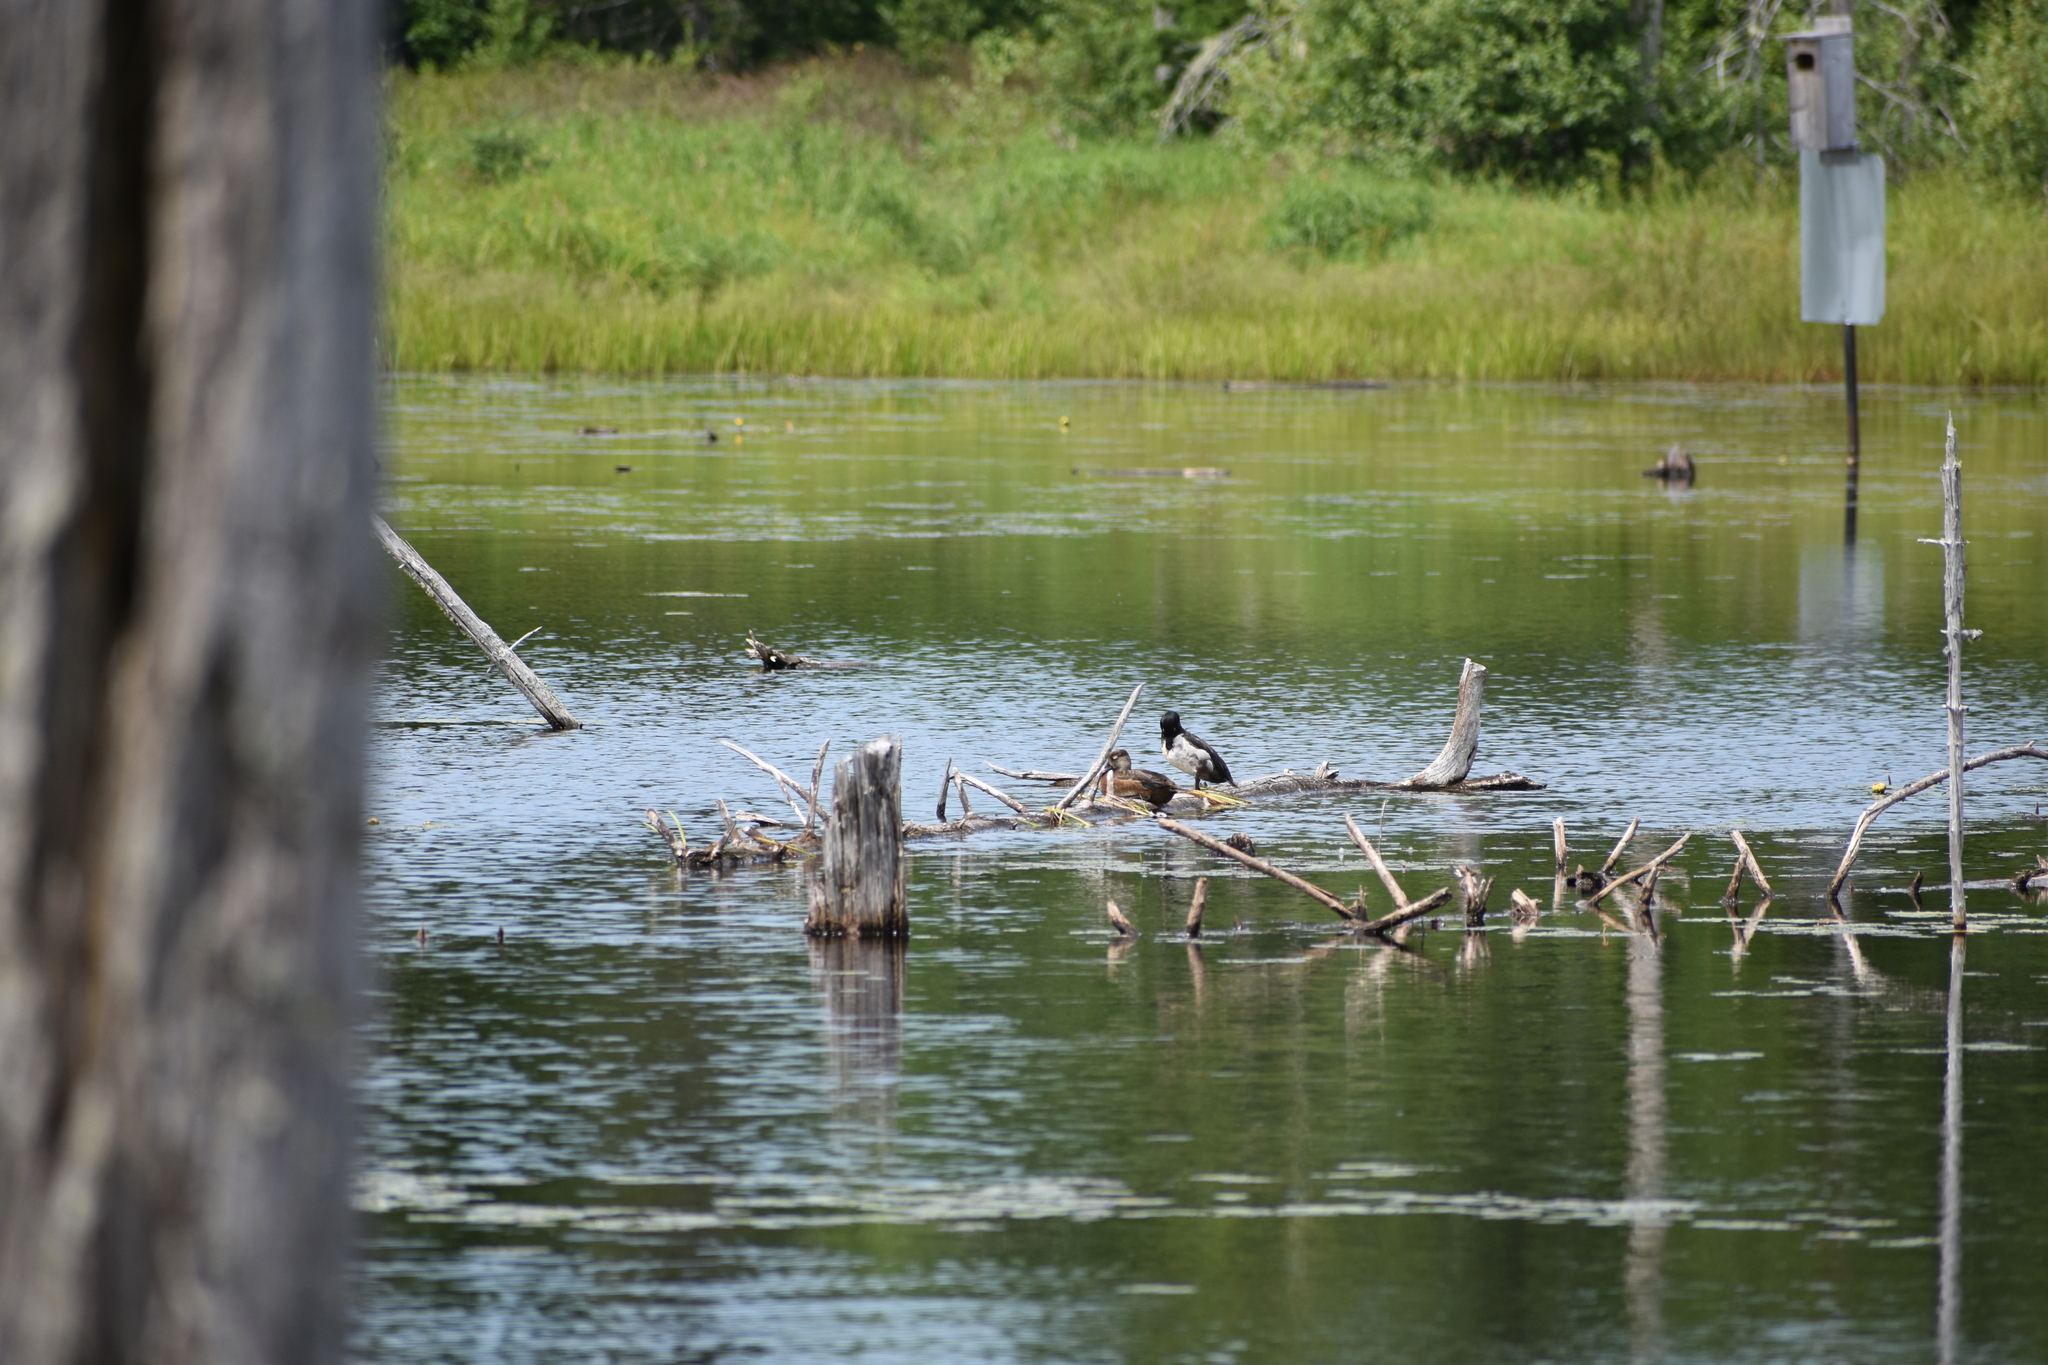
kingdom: Animalia
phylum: Chordata
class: Aves
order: Anseriformes
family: Anatidae
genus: Aythya
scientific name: Aythya collaris
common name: Ring-necked duck
